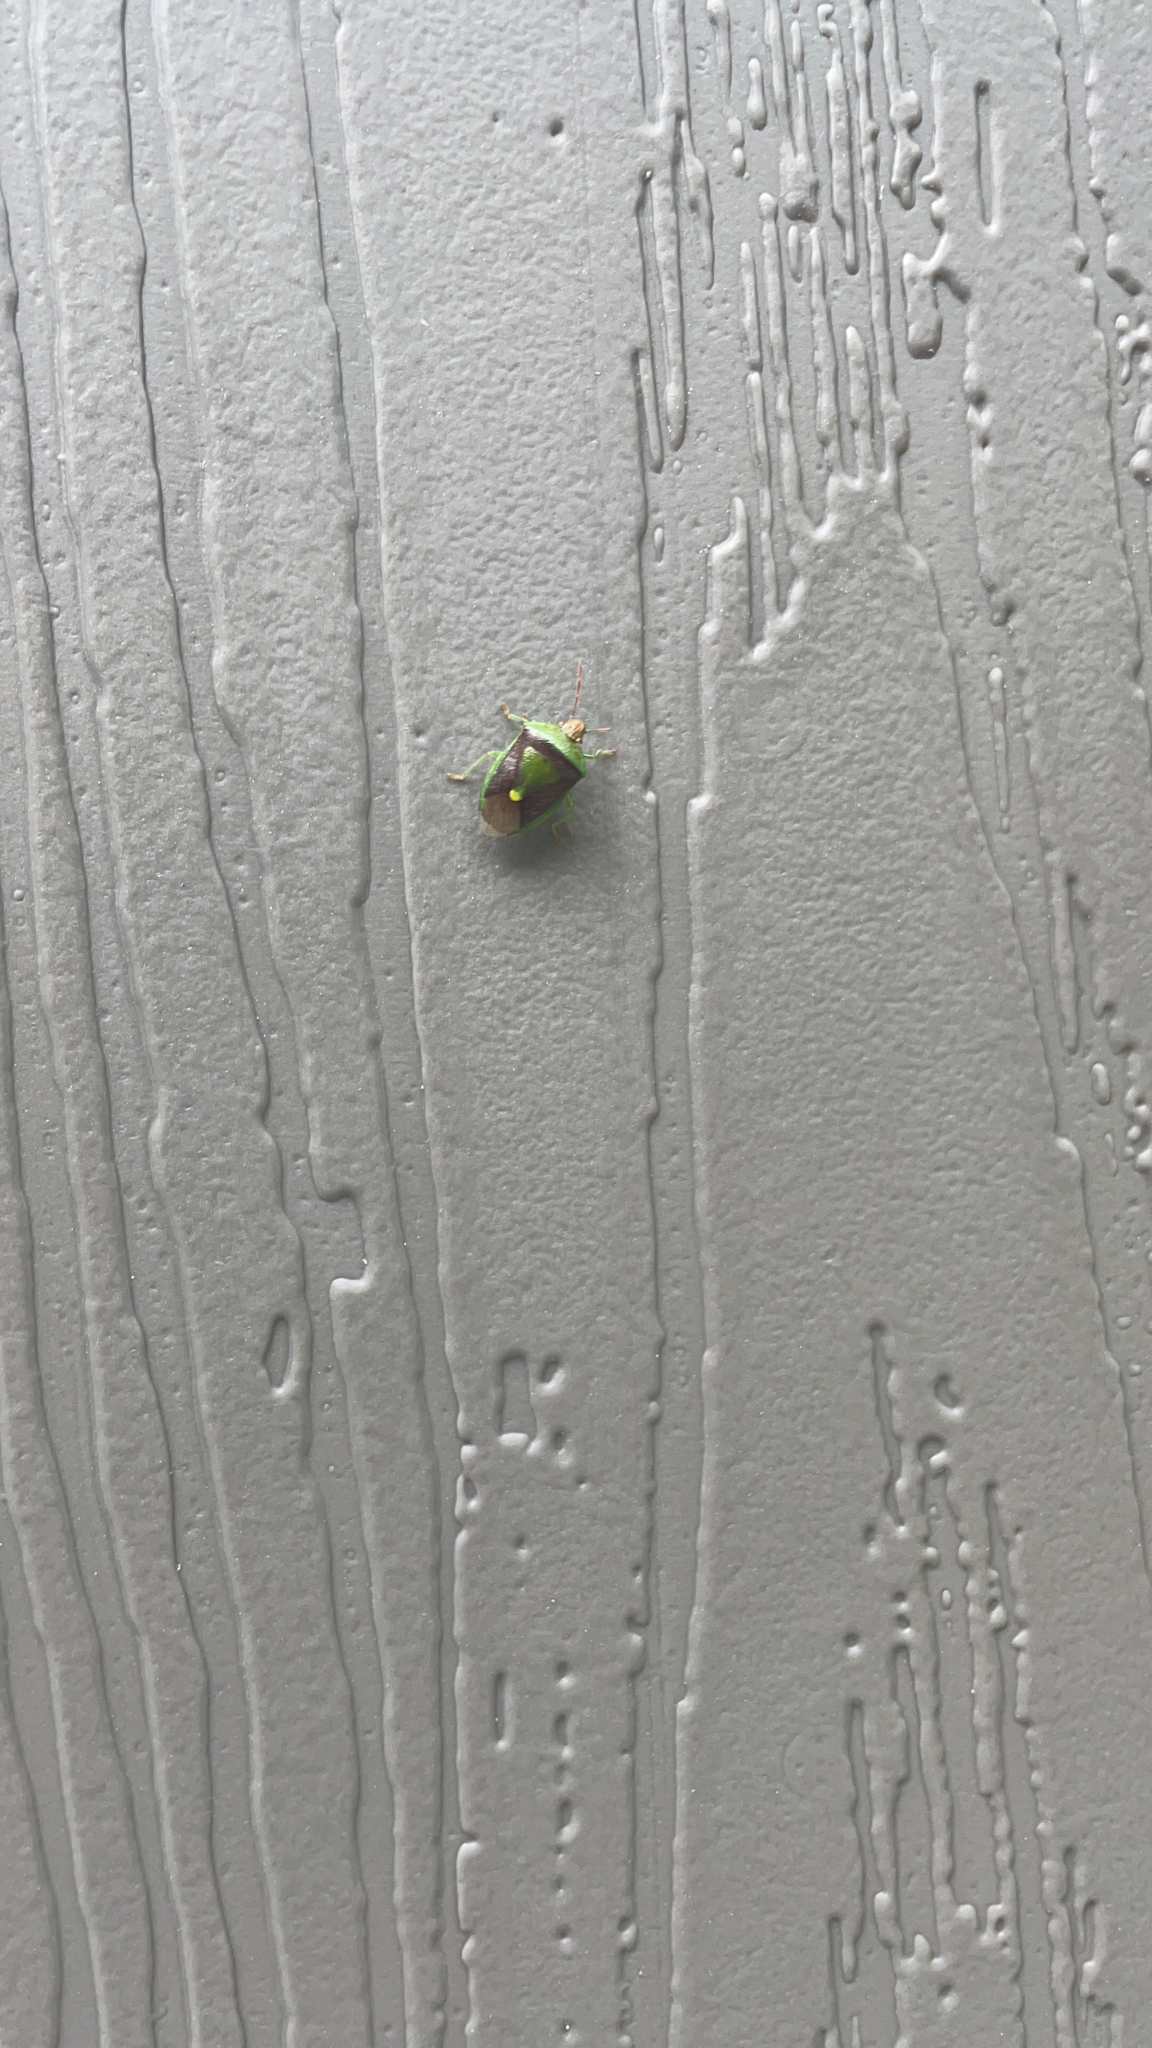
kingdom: Animalia
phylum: Arthropoda
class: Insecta
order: Hemiptera
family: Pentatomidae
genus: Banasa
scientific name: Banasa dimidiata
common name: Green burgundy stink bug
